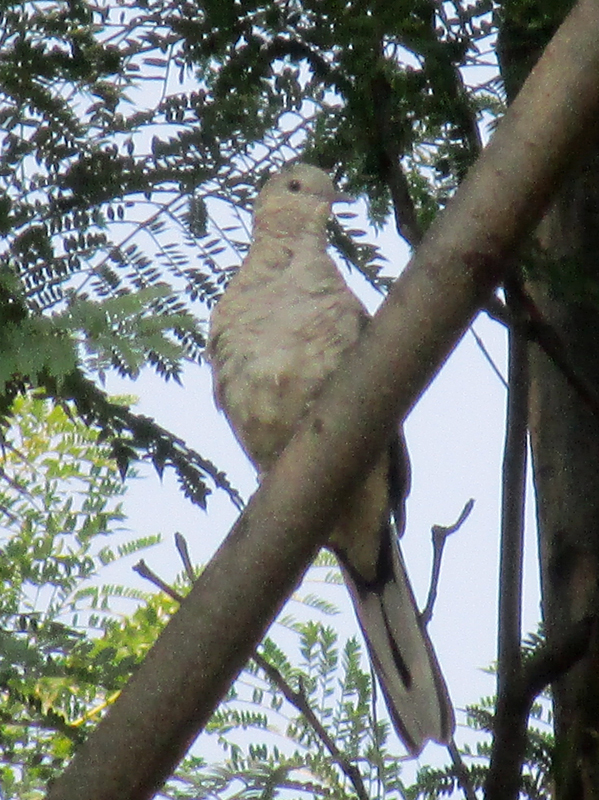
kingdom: Animalia
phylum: Chordata
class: Aves
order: Columbiformes
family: Columbidae
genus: Columbina
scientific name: Columbina inca
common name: Inca dove
